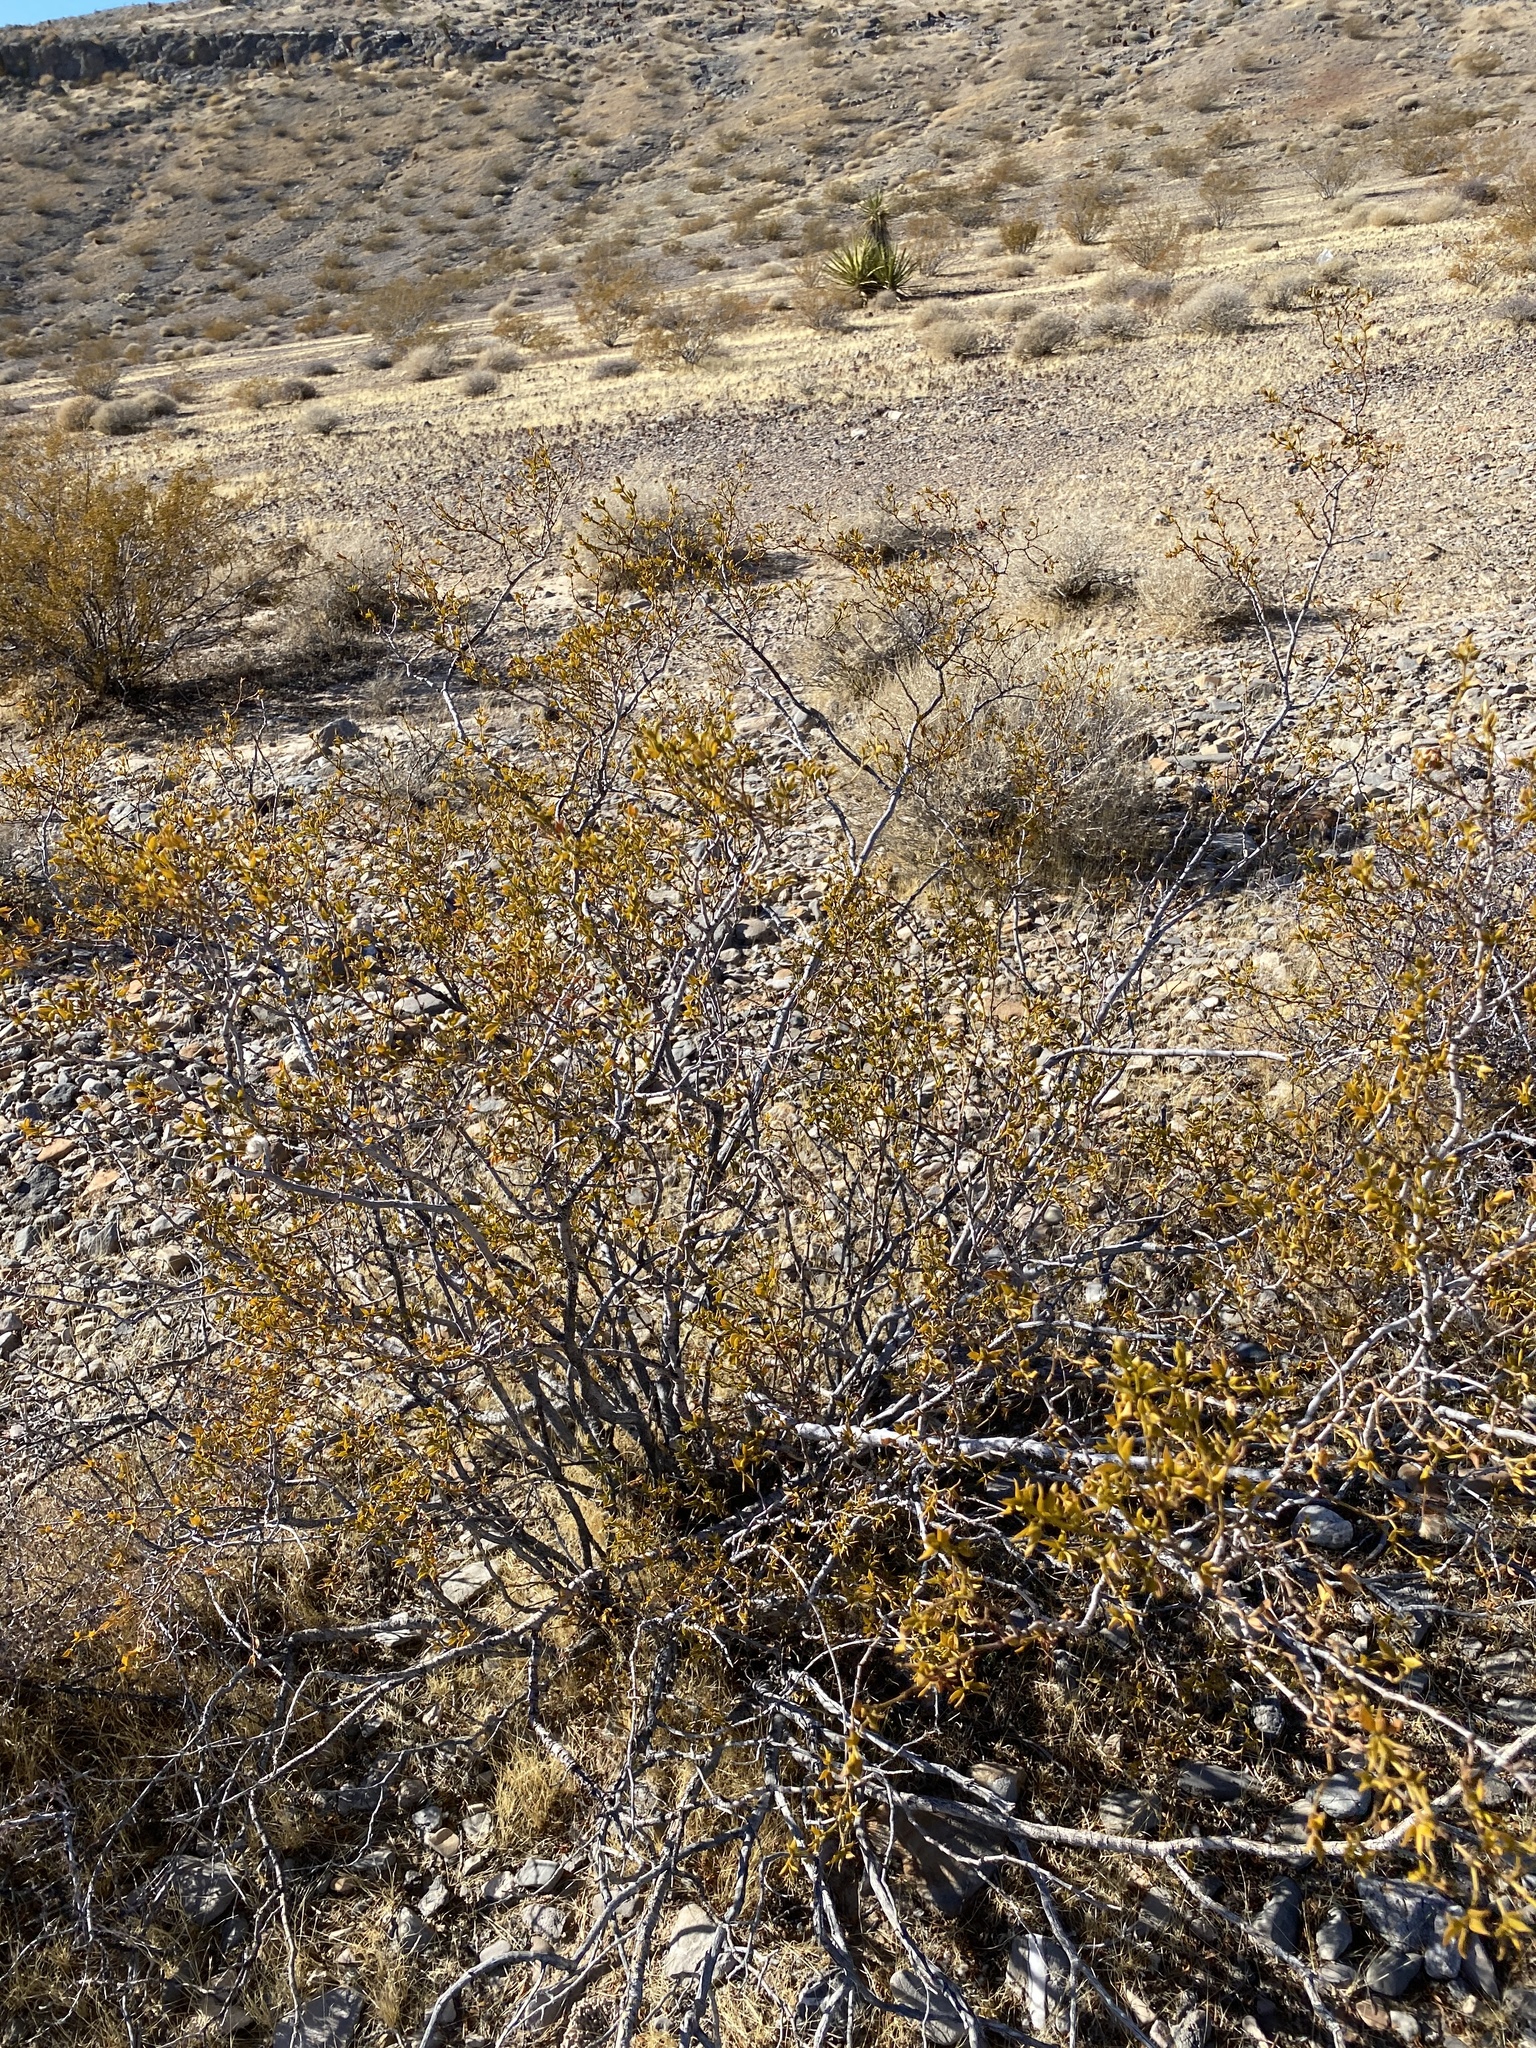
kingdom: Plantae
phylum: Tracheophyta
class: Magnoliopsida
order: Zygophyllales
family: Zygophyllaceae
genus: Larrea
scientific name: Larrea tridentata
